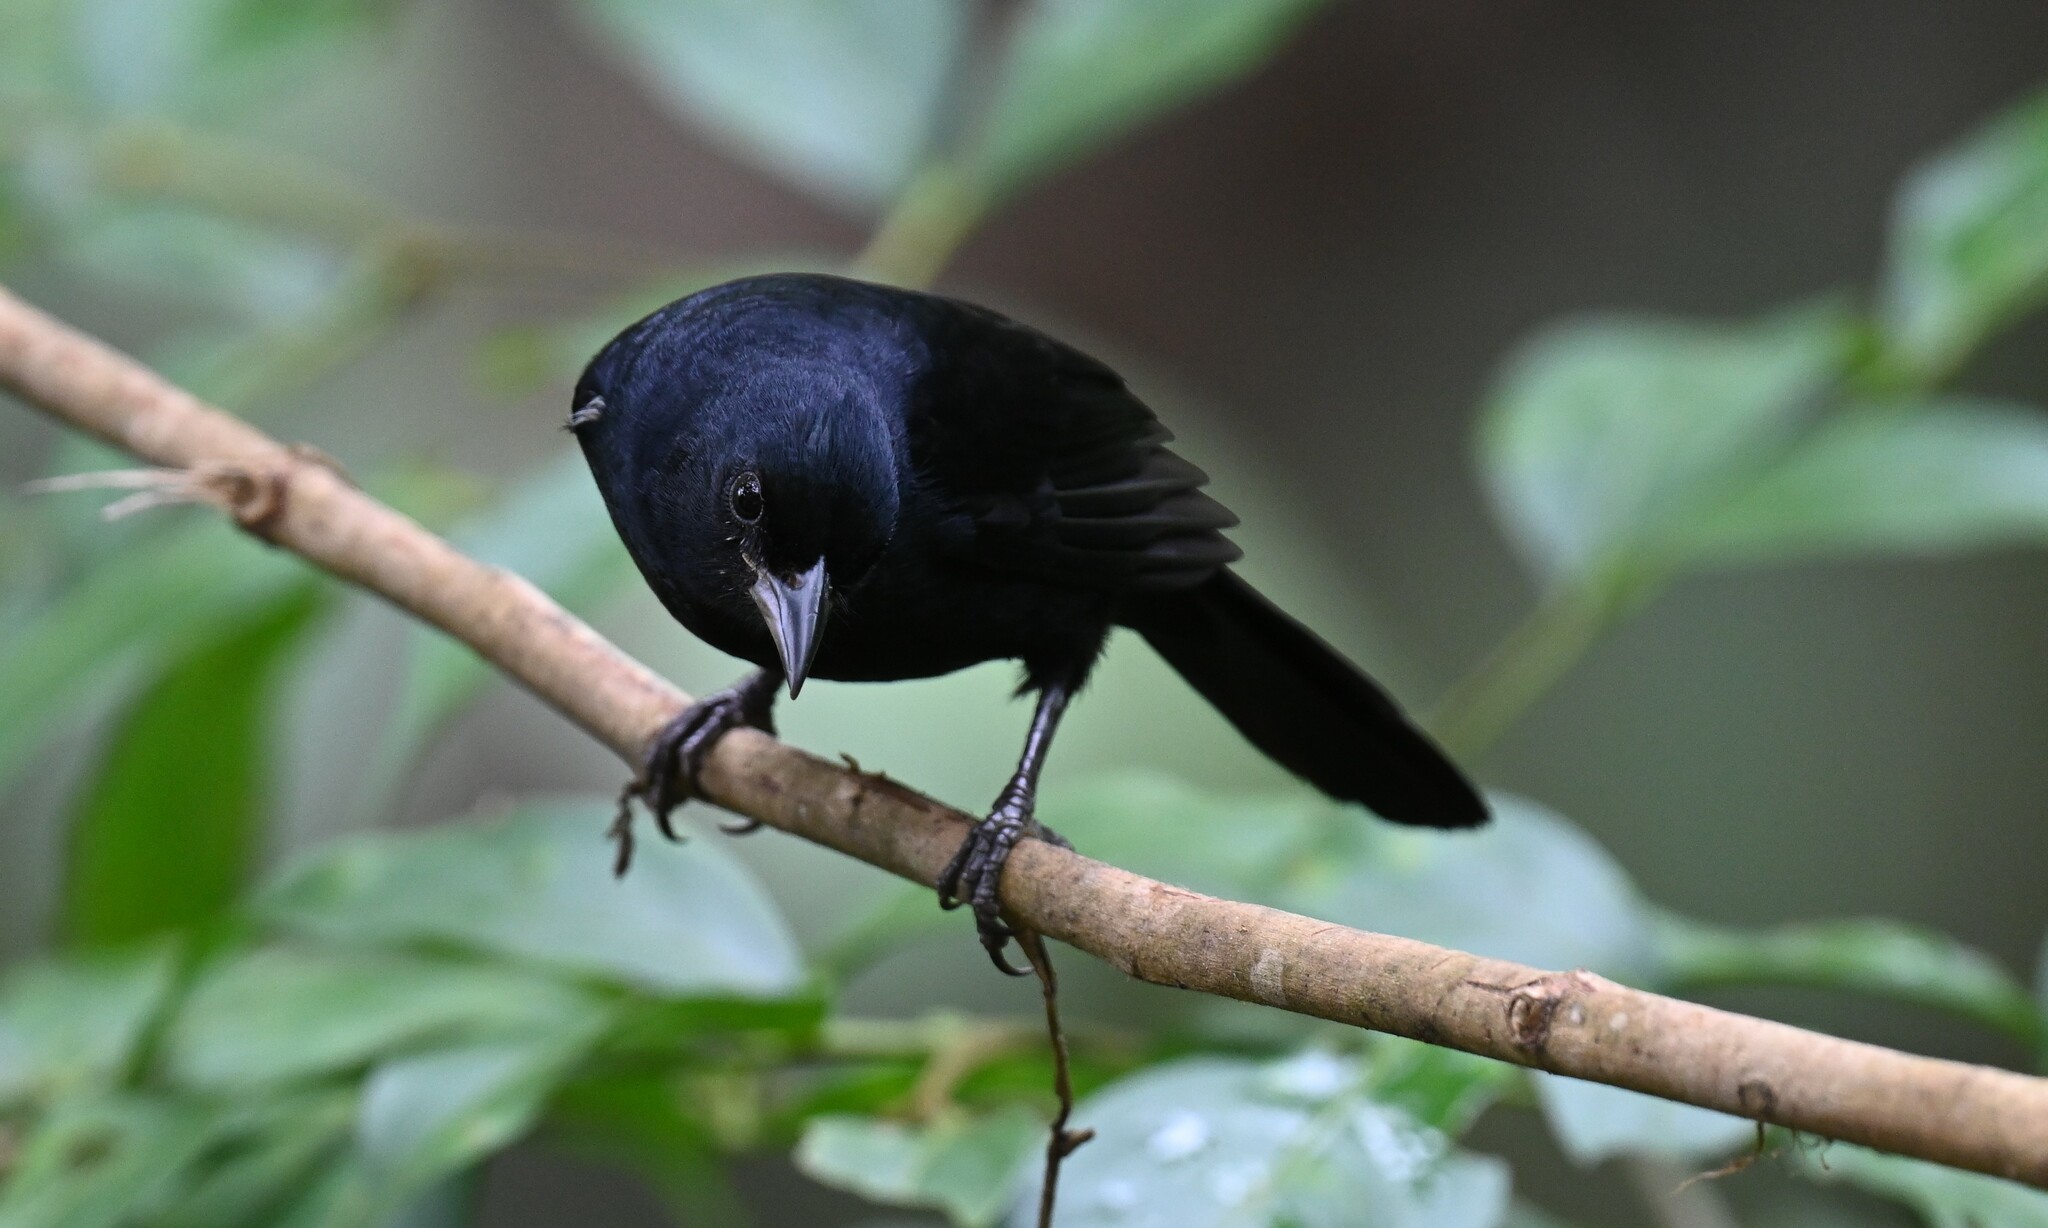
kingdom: Animalia
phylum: Chordata
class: Aves
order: Passeriformes
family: Thraupidae
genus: Tachyphonus
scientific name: Tachyphonus rufus
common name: White-lined tanager
